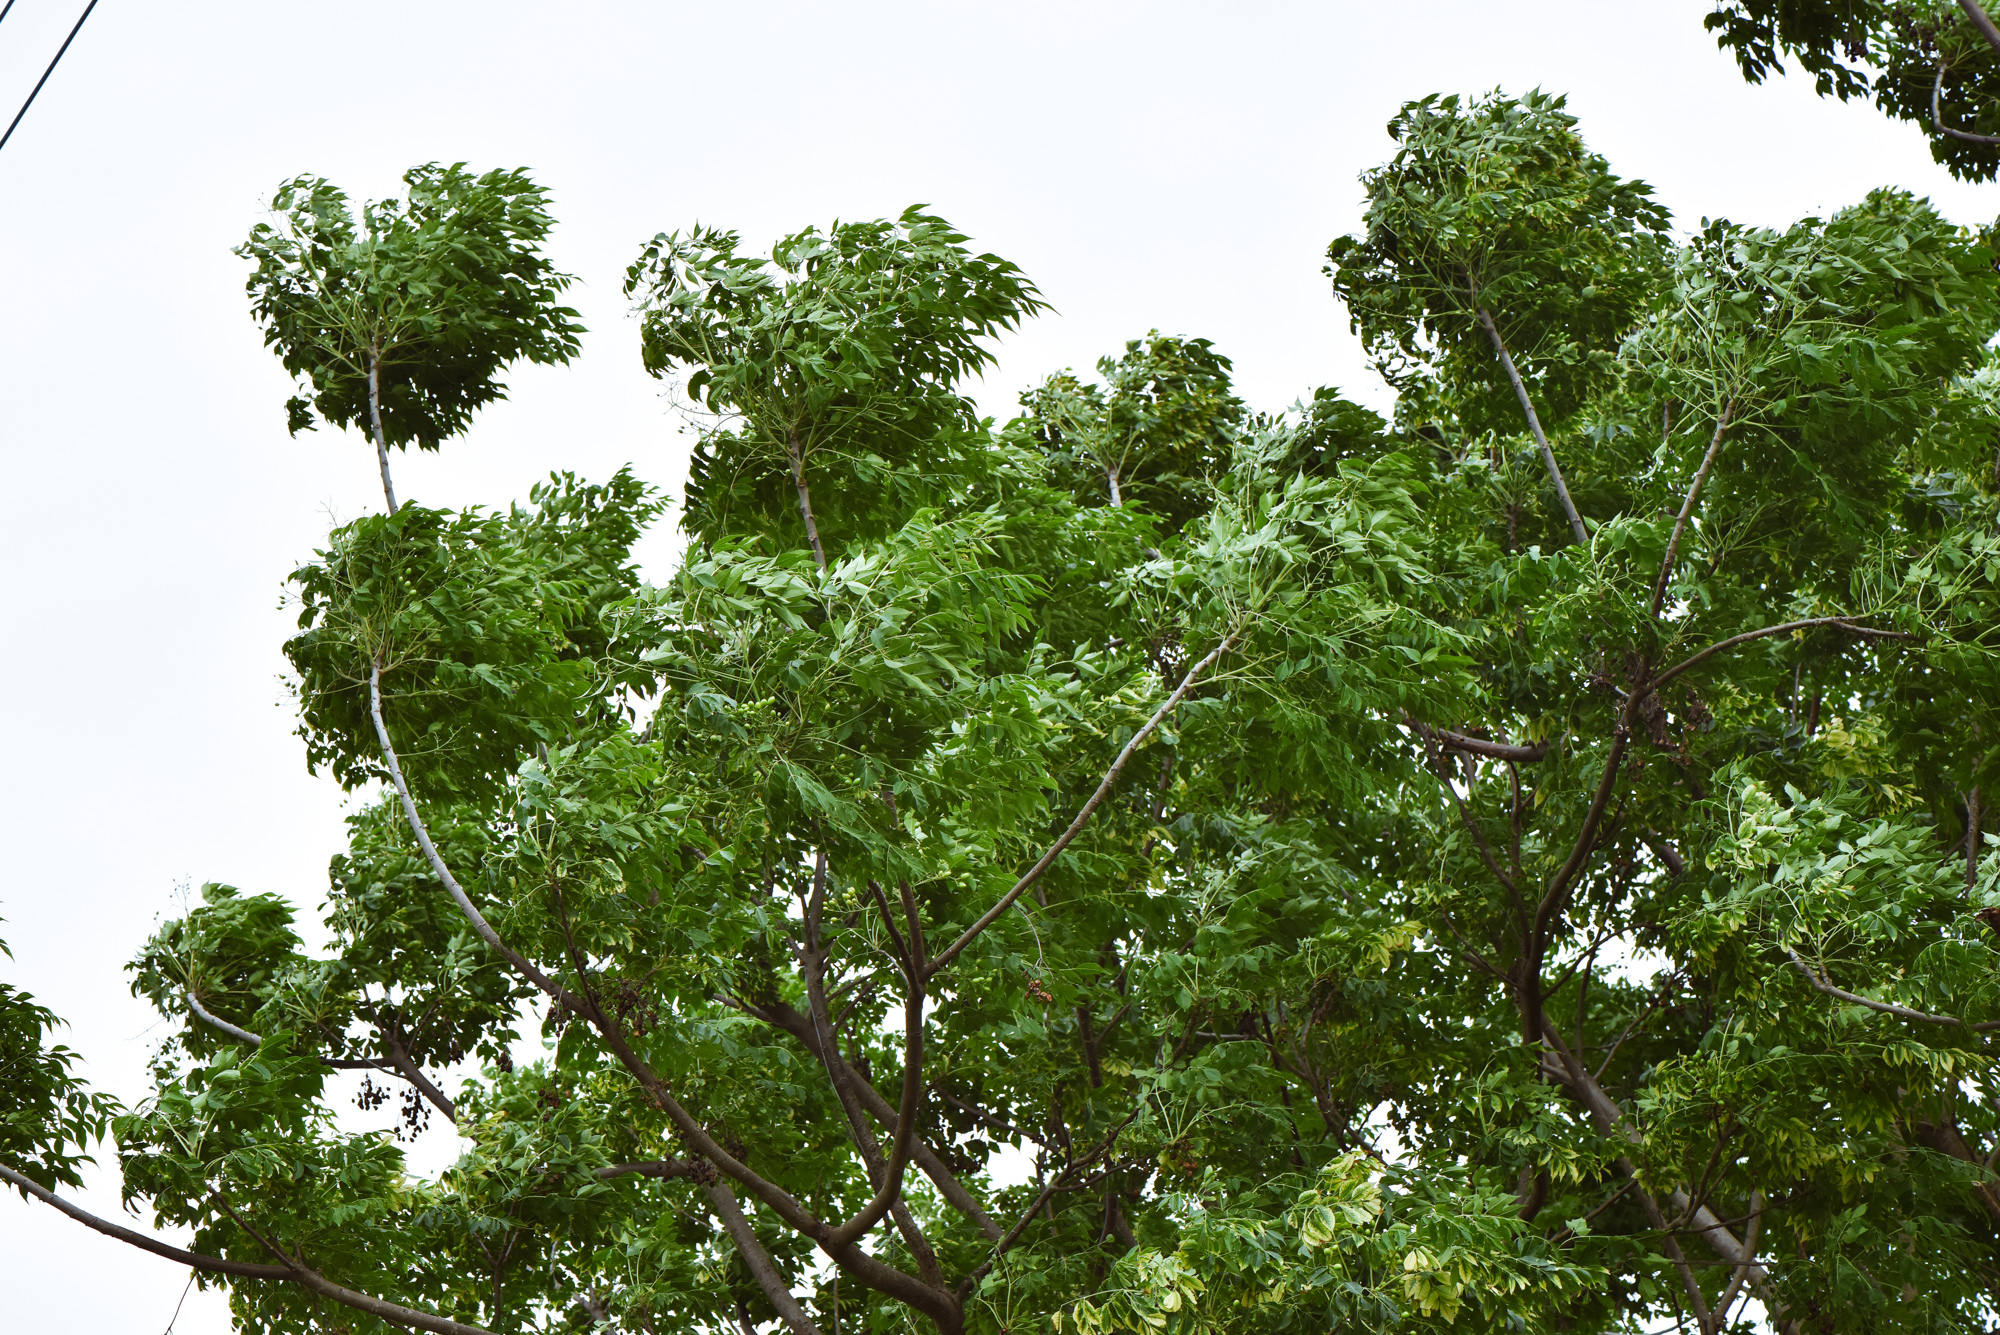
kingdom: Plantae
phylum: Tracheophyta
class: Magnoliopsida
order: Sapindales
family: Meliaceae
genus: Melia
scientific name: Melia azedarach
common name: Chinaberrytree
